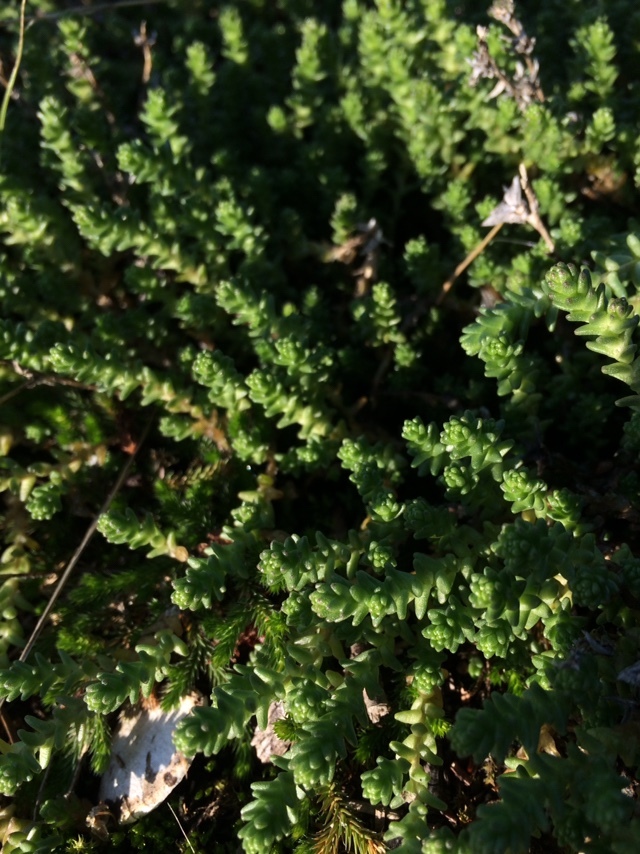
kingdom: Plantae
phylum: Tracheophyta
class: Magnoliopsida
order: Saxifragales
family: Crassulaceae
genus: Sedum
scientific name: Sedum acre
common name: Biting stonecrop
